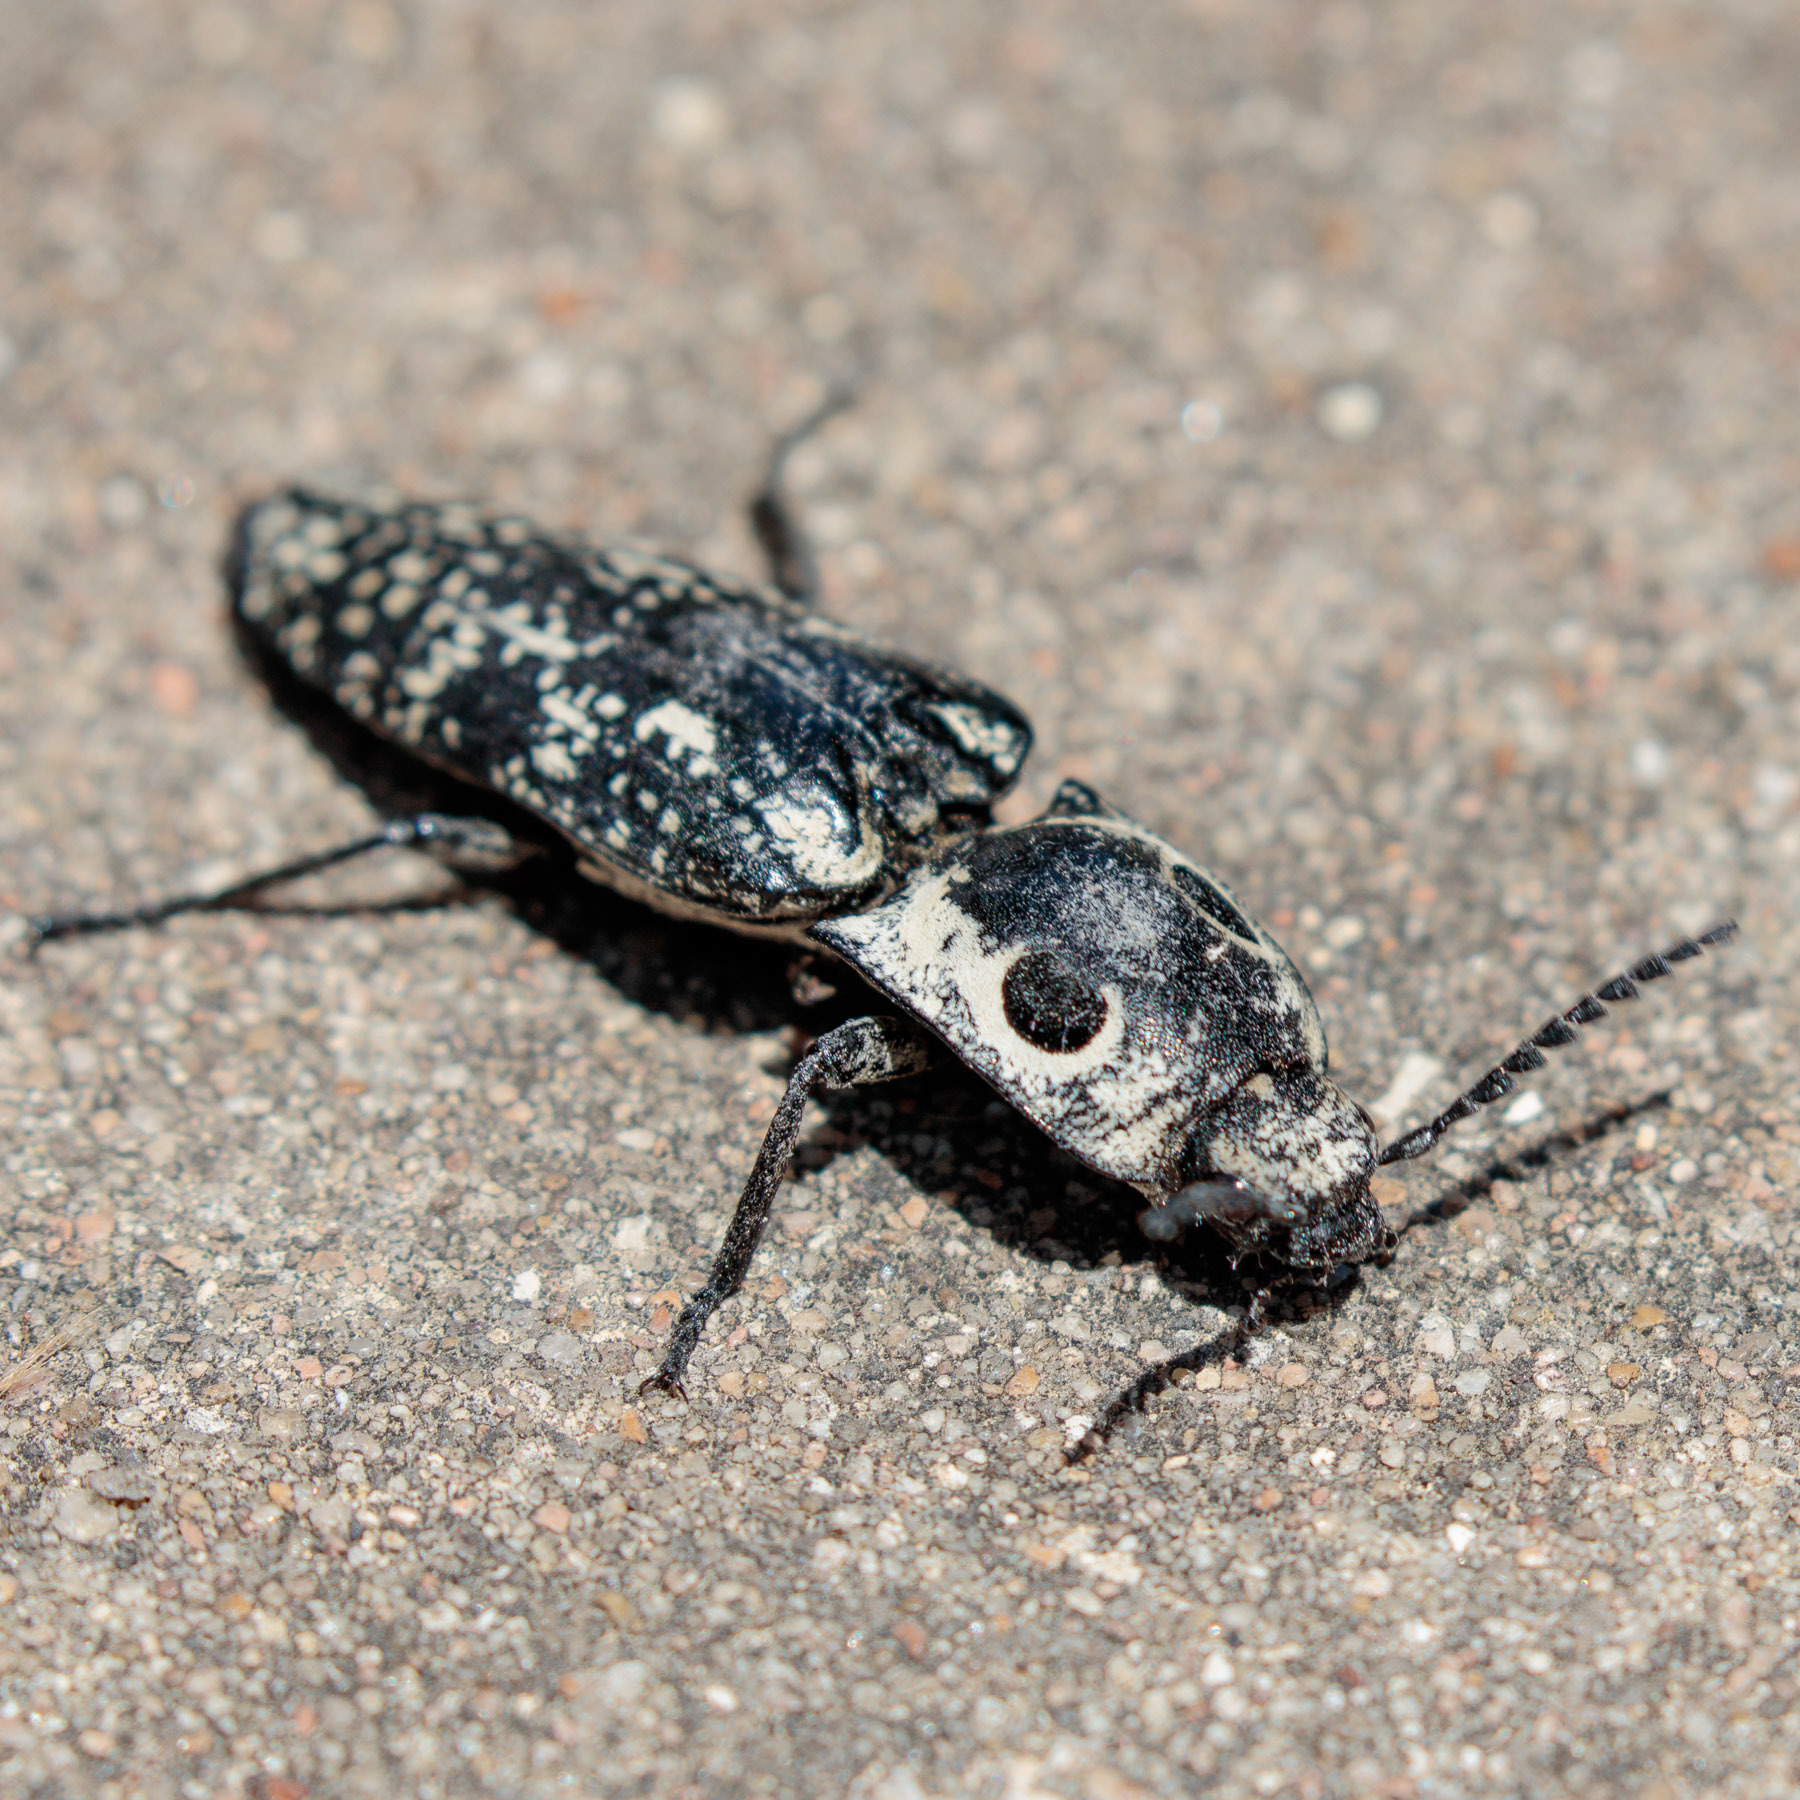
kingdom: Animalia
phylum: Arthropoda
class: Insecta
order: Coleoptera
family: Elateridae
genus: Alaus
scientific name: Alaus
